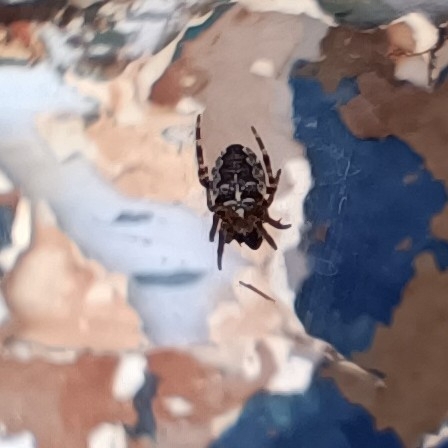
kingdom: Animalia
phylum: Arthropoda
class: Arachnida
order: Araneae
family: Araneidae
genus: Araneus
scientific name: Araneus diadematus
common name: Cross orbweaver
